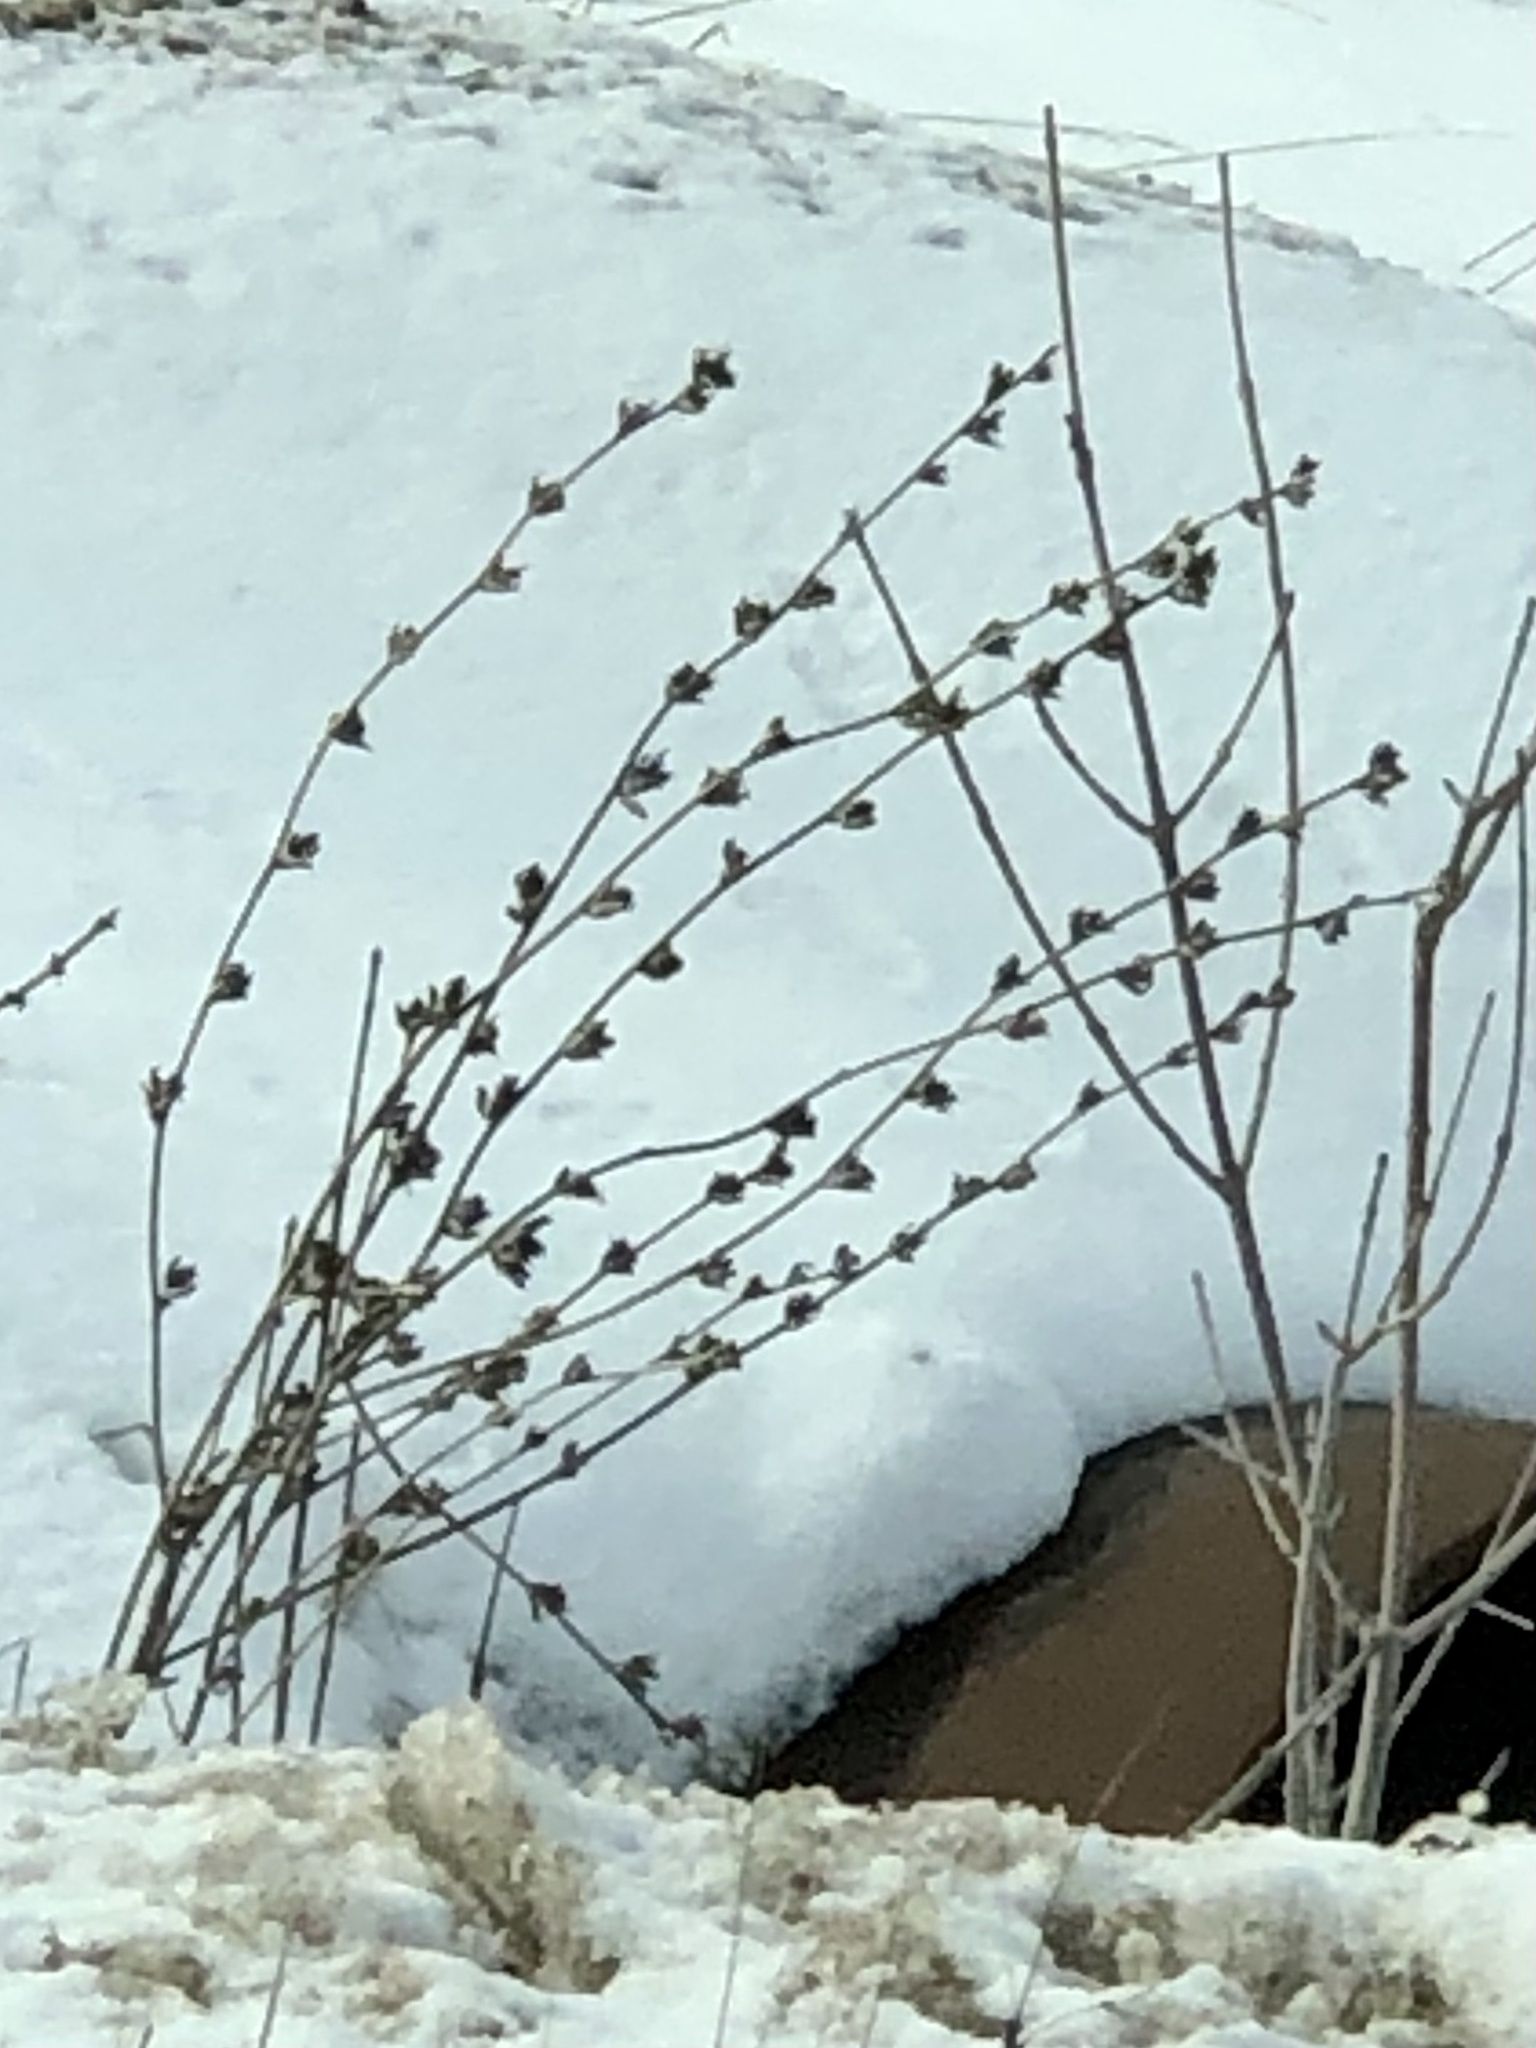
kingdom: Plantae
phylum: Tracheophyta
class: Magnoliopsida
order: Asterales
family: Asteraceae
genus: Cichorium
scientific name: Cichorium intybus
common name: Chicory
